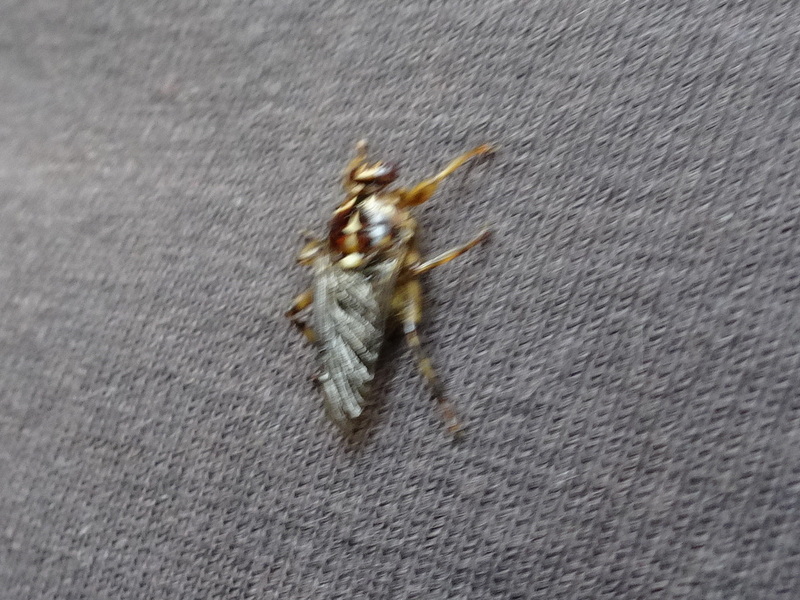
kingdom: Animalia
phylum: Arthropoda
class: Insecta
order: Diptera
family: Hippoboscidae
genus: Hippobosca
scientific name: Hippobosca equina
